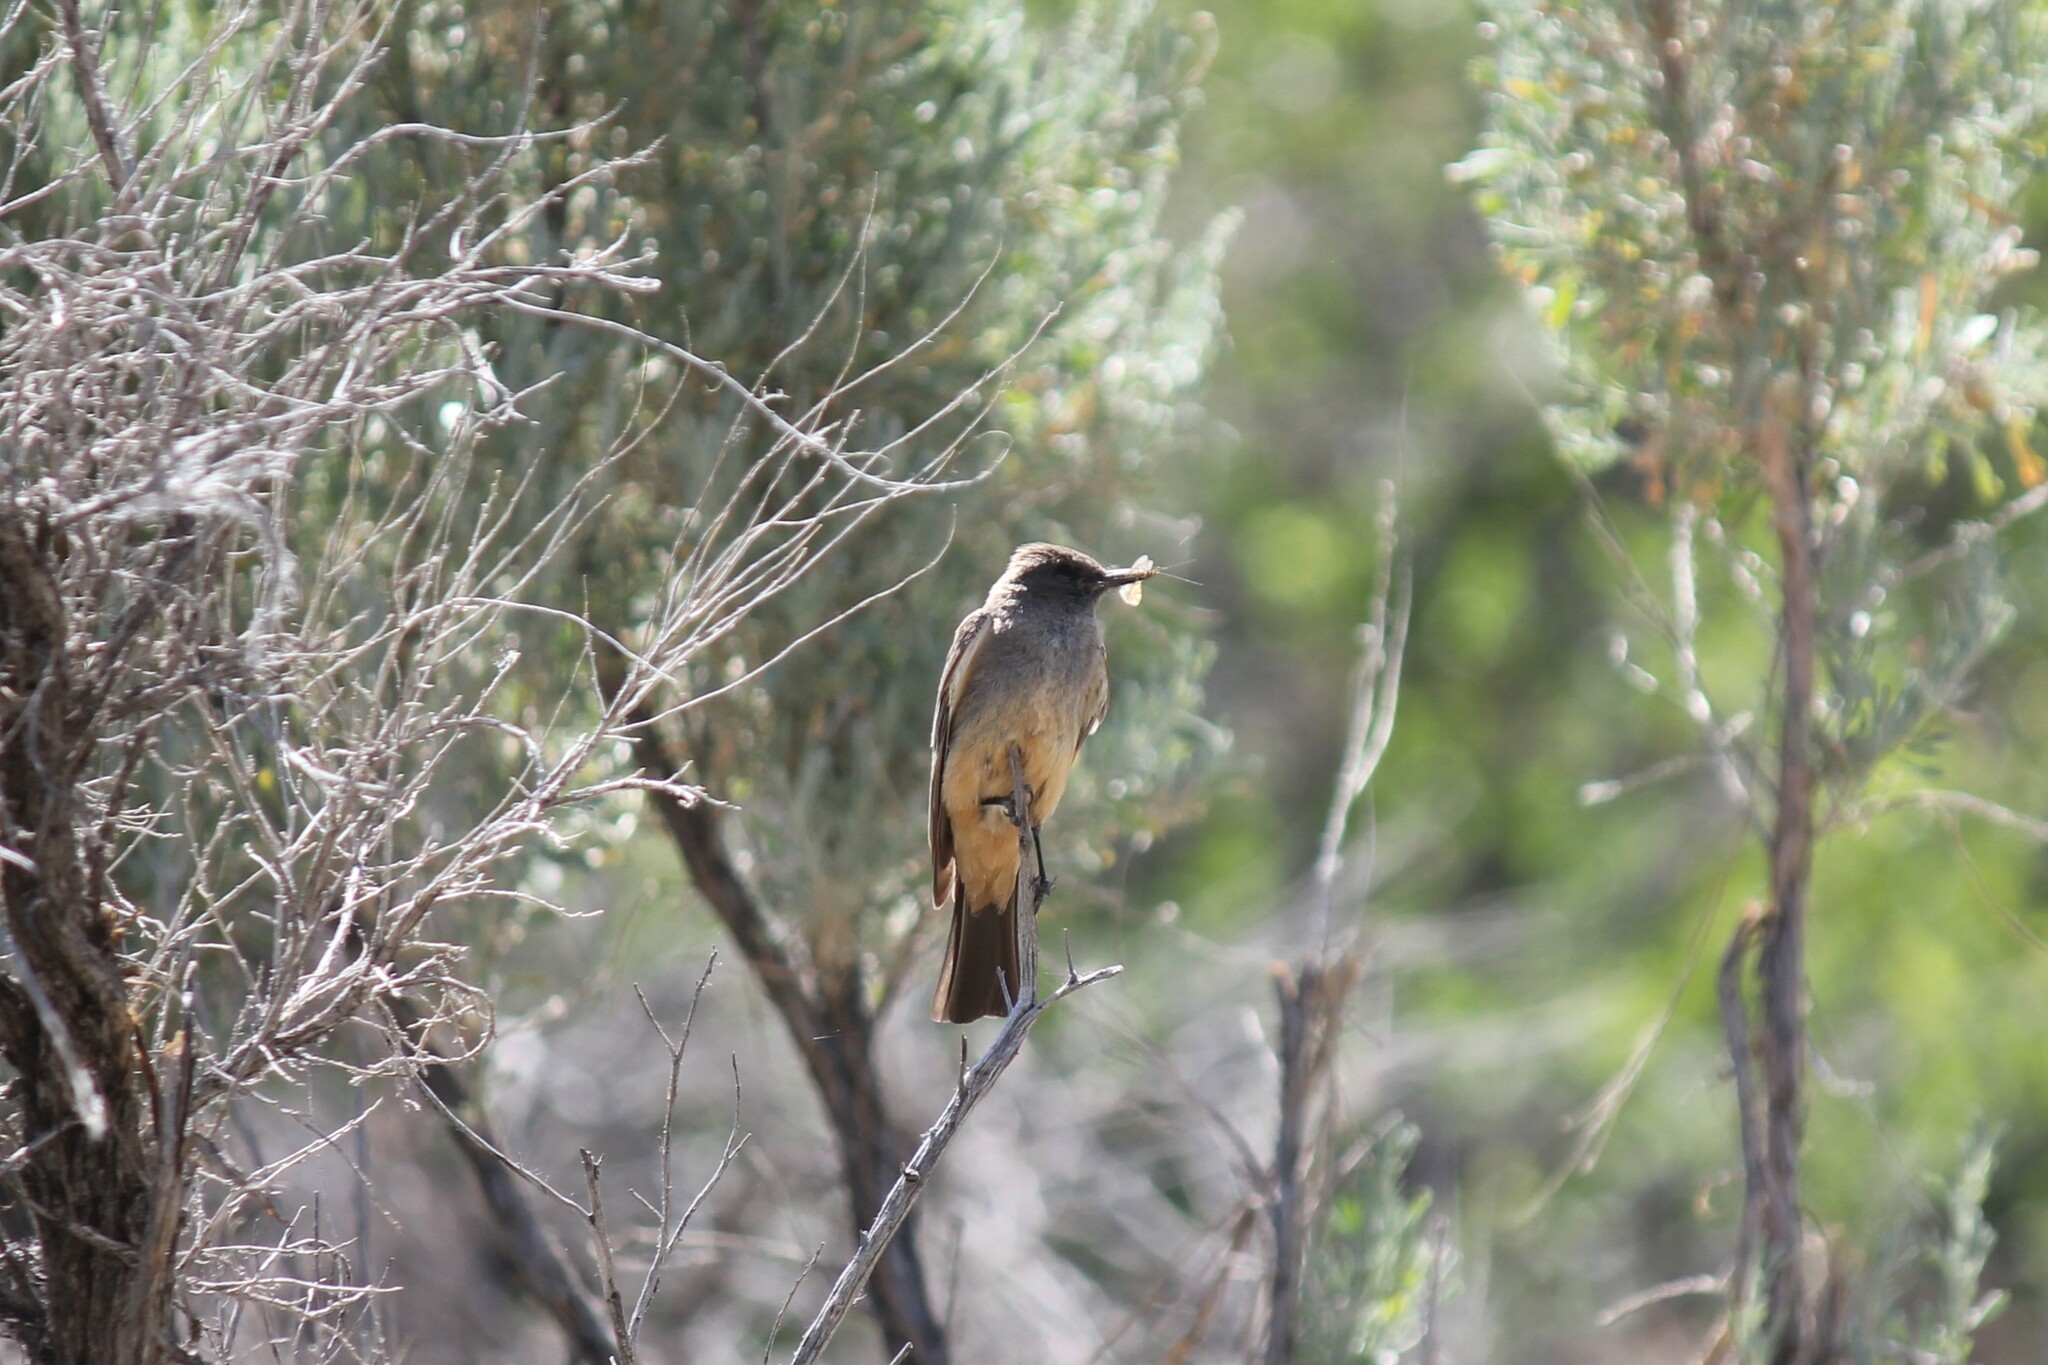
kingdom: Animalia
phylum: Chordata
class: Aves
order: Passeriformes
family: Tyrannidae
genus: Sayornis
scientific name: Sayornis saya
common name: Say's phoebe
